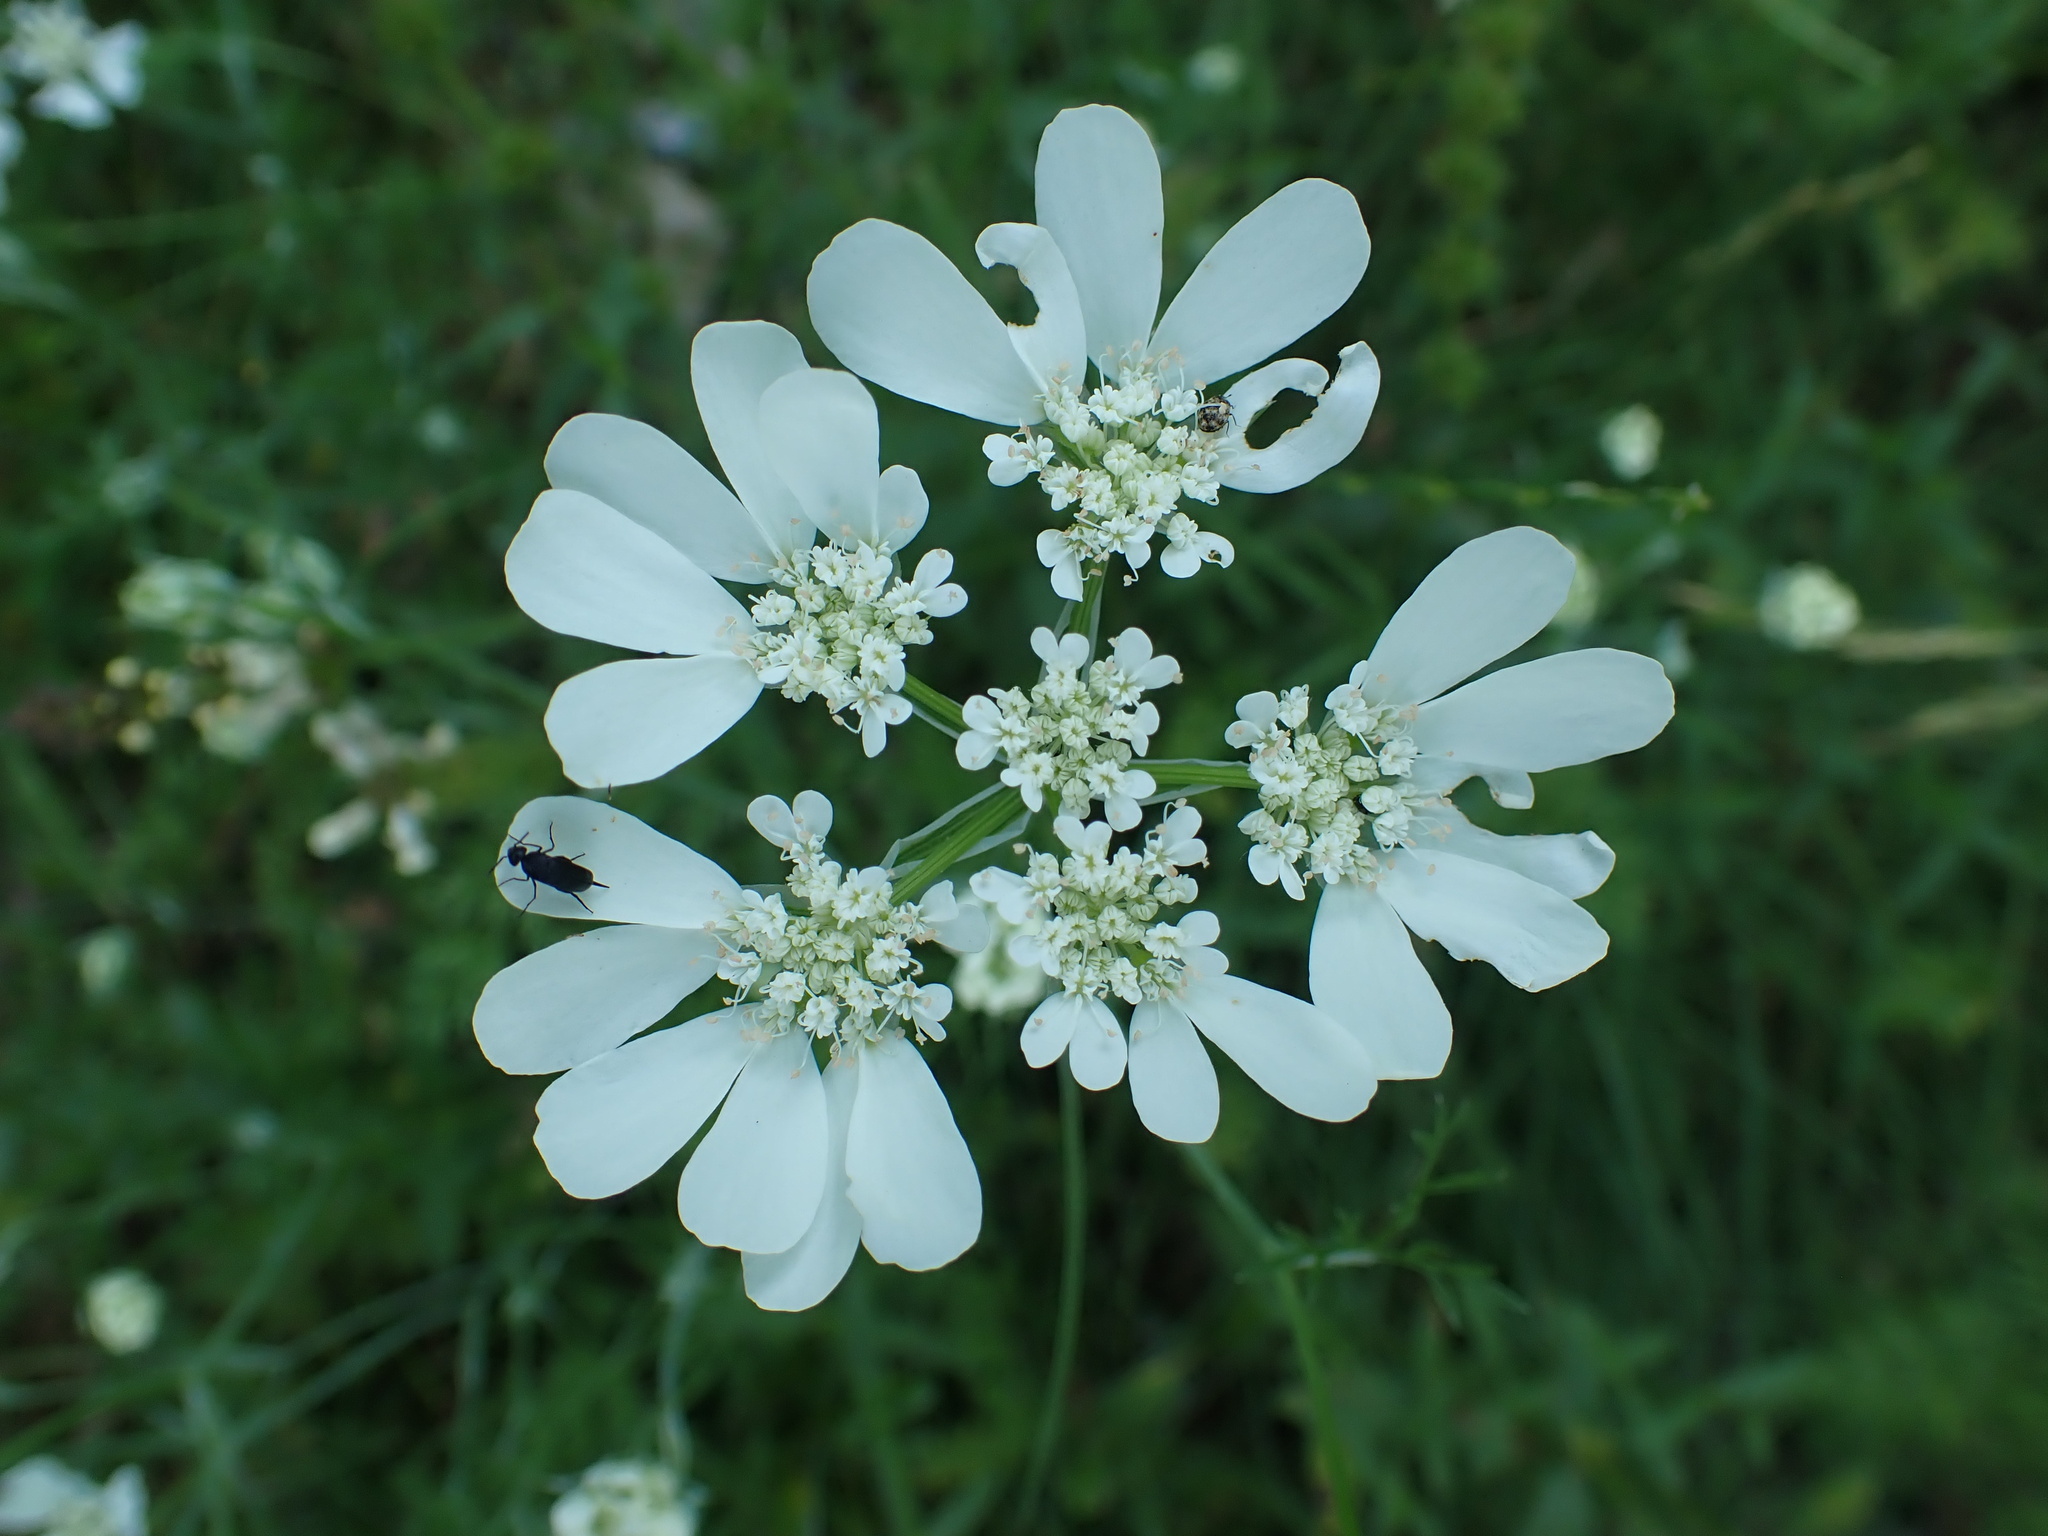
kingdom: Plantae
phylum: Tracheophyta
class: Magnoliopsida
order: Apiales
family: Apiaceae
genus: Orlaya
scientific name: Orlaya grandiflora
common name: White lace flower
